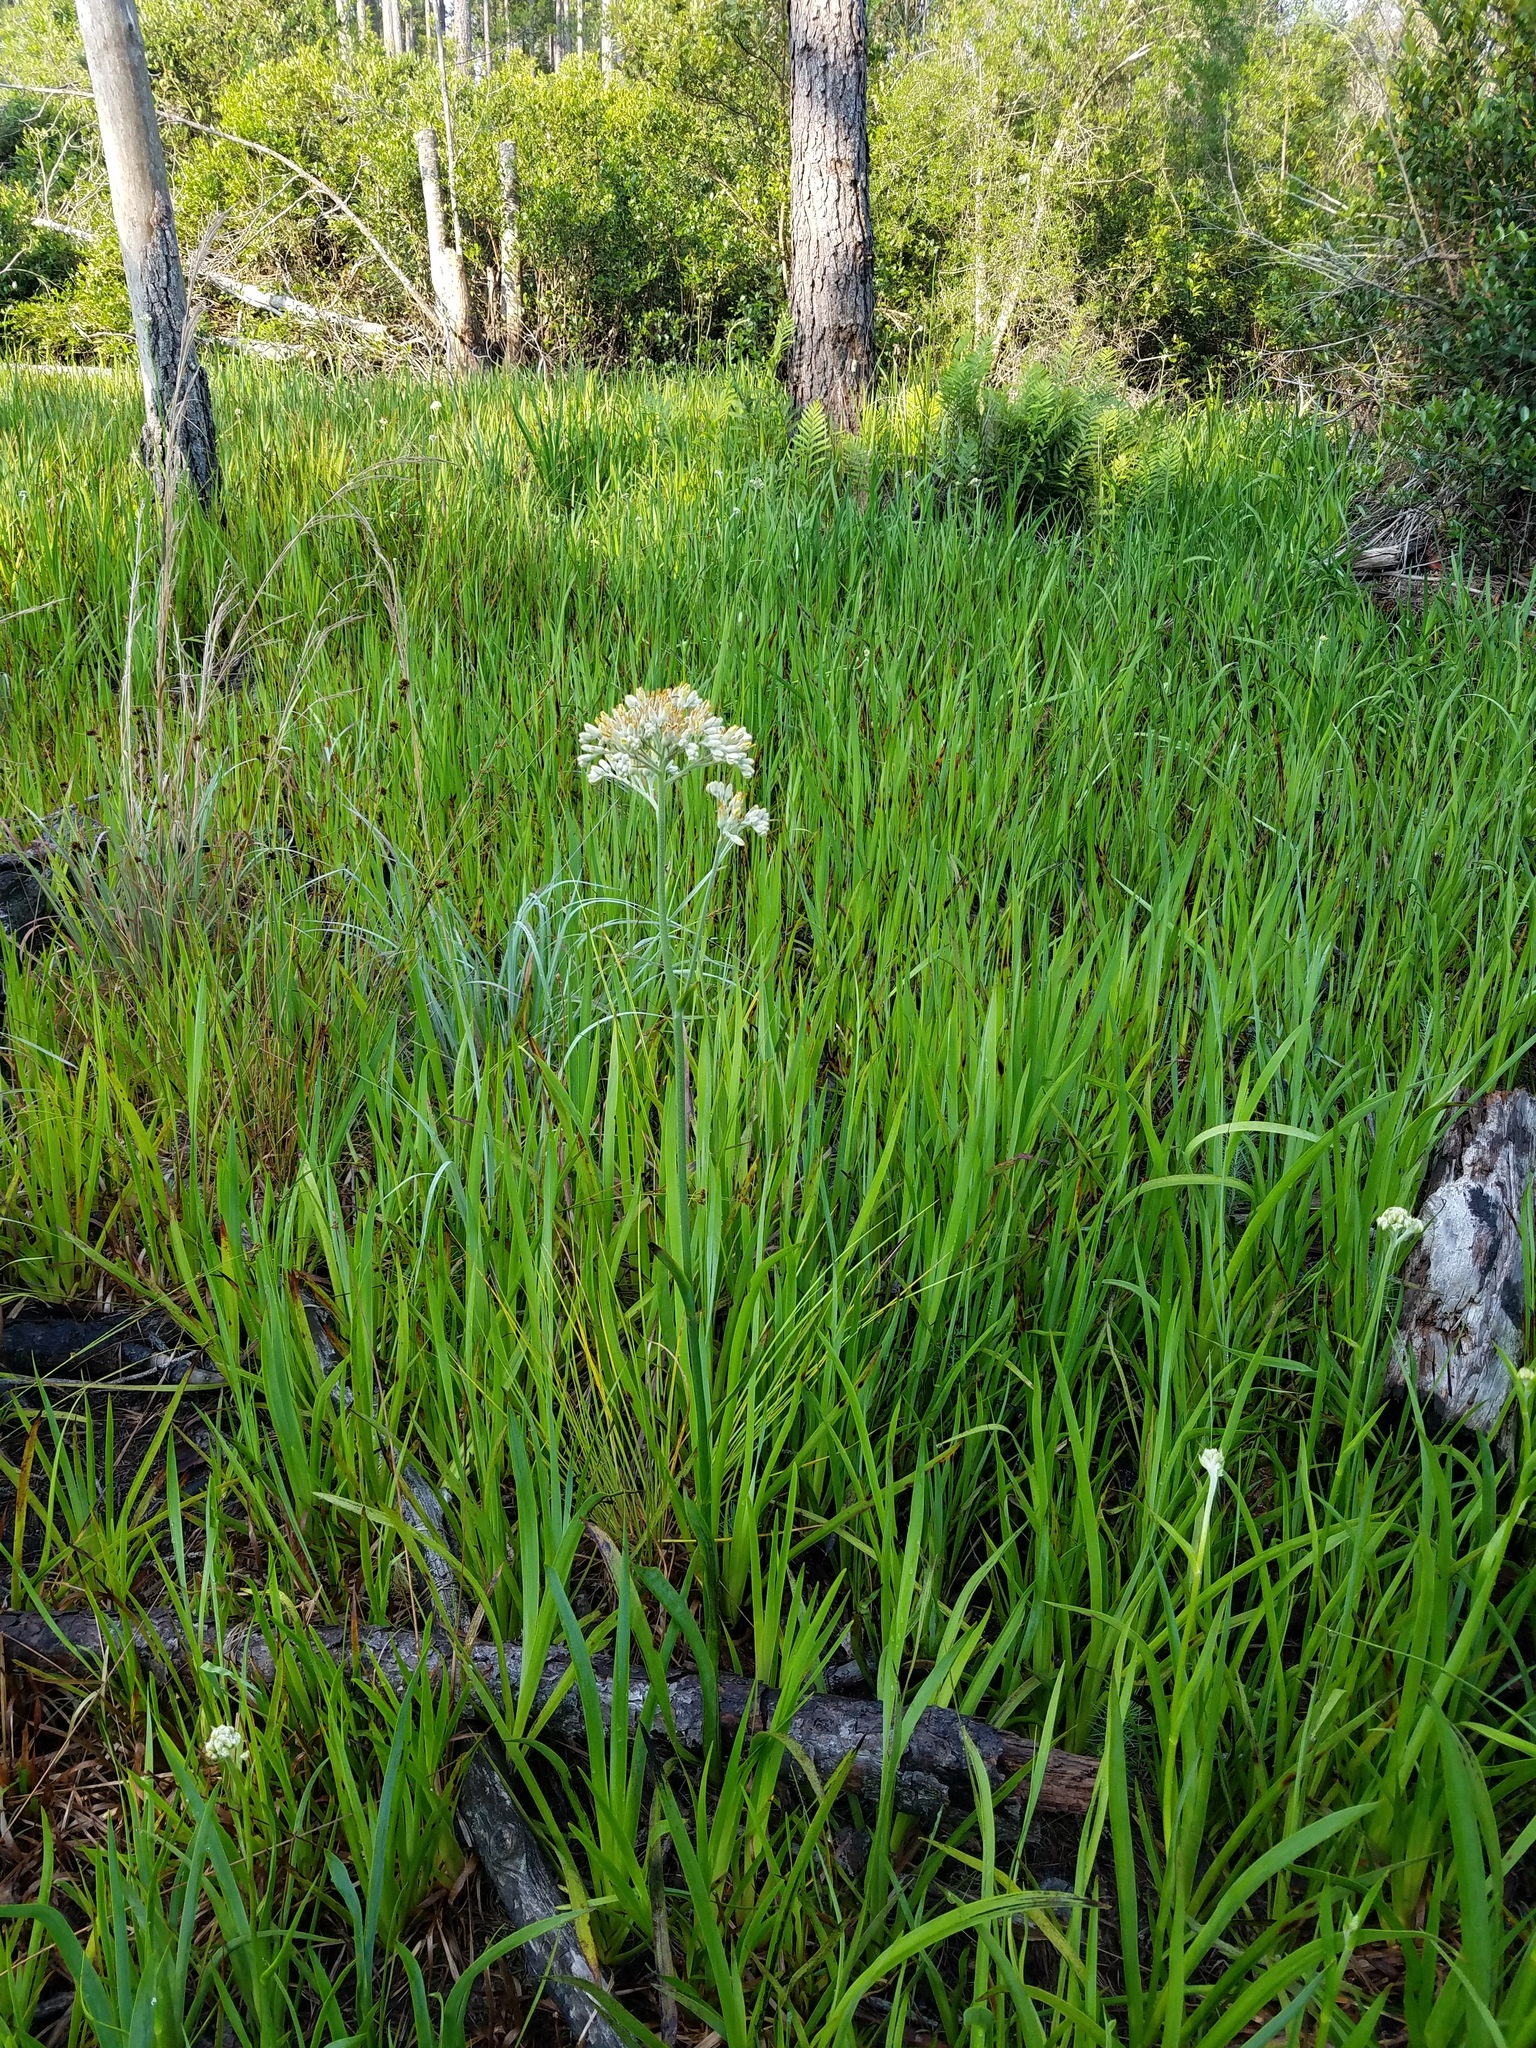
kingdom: Plantae
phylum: Tracheophyta
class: Liliopsida
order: Commelinales
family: Haemodoraceae
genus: Lachnanthes
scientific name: Lachnanthes caroliana
